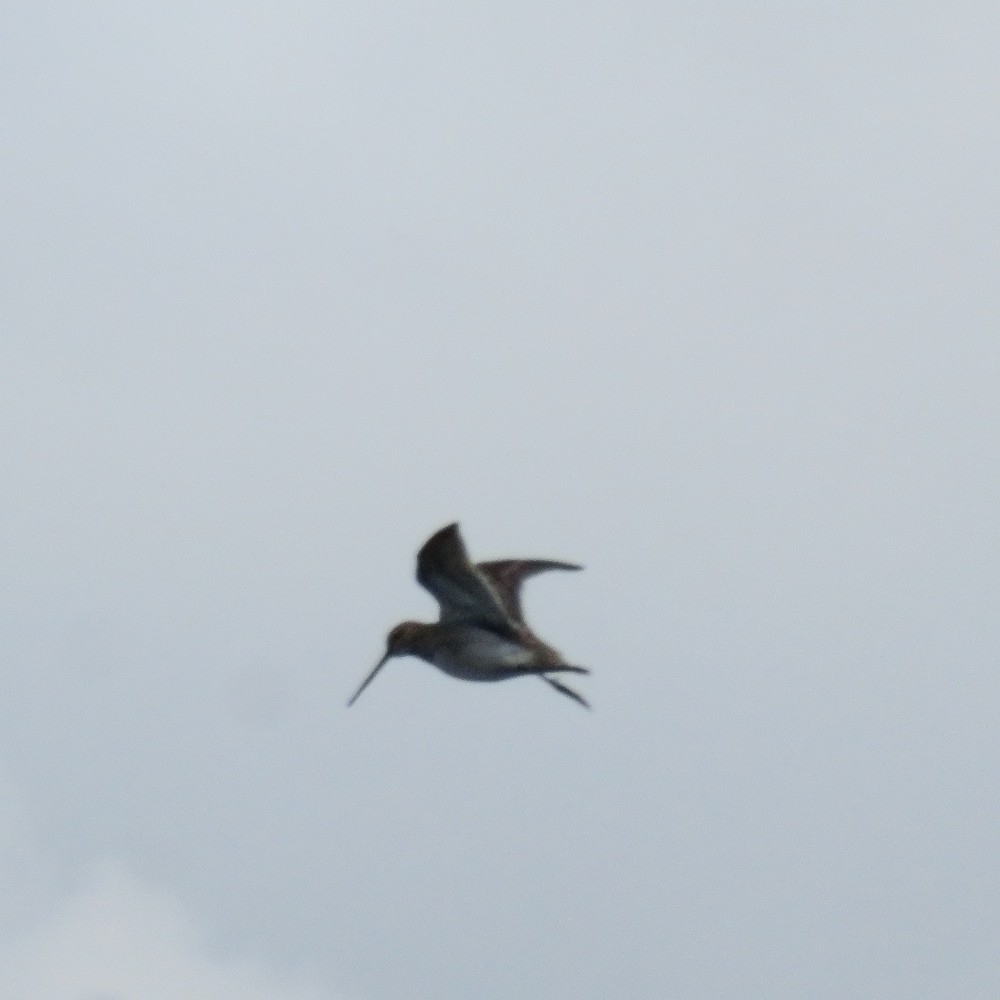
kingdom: Animalia
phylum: Chordata
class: Aves
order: Charadriiformes
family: Scolopacidae
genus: Gallinago
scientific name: Gallinago gallinago
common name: Common snipe
